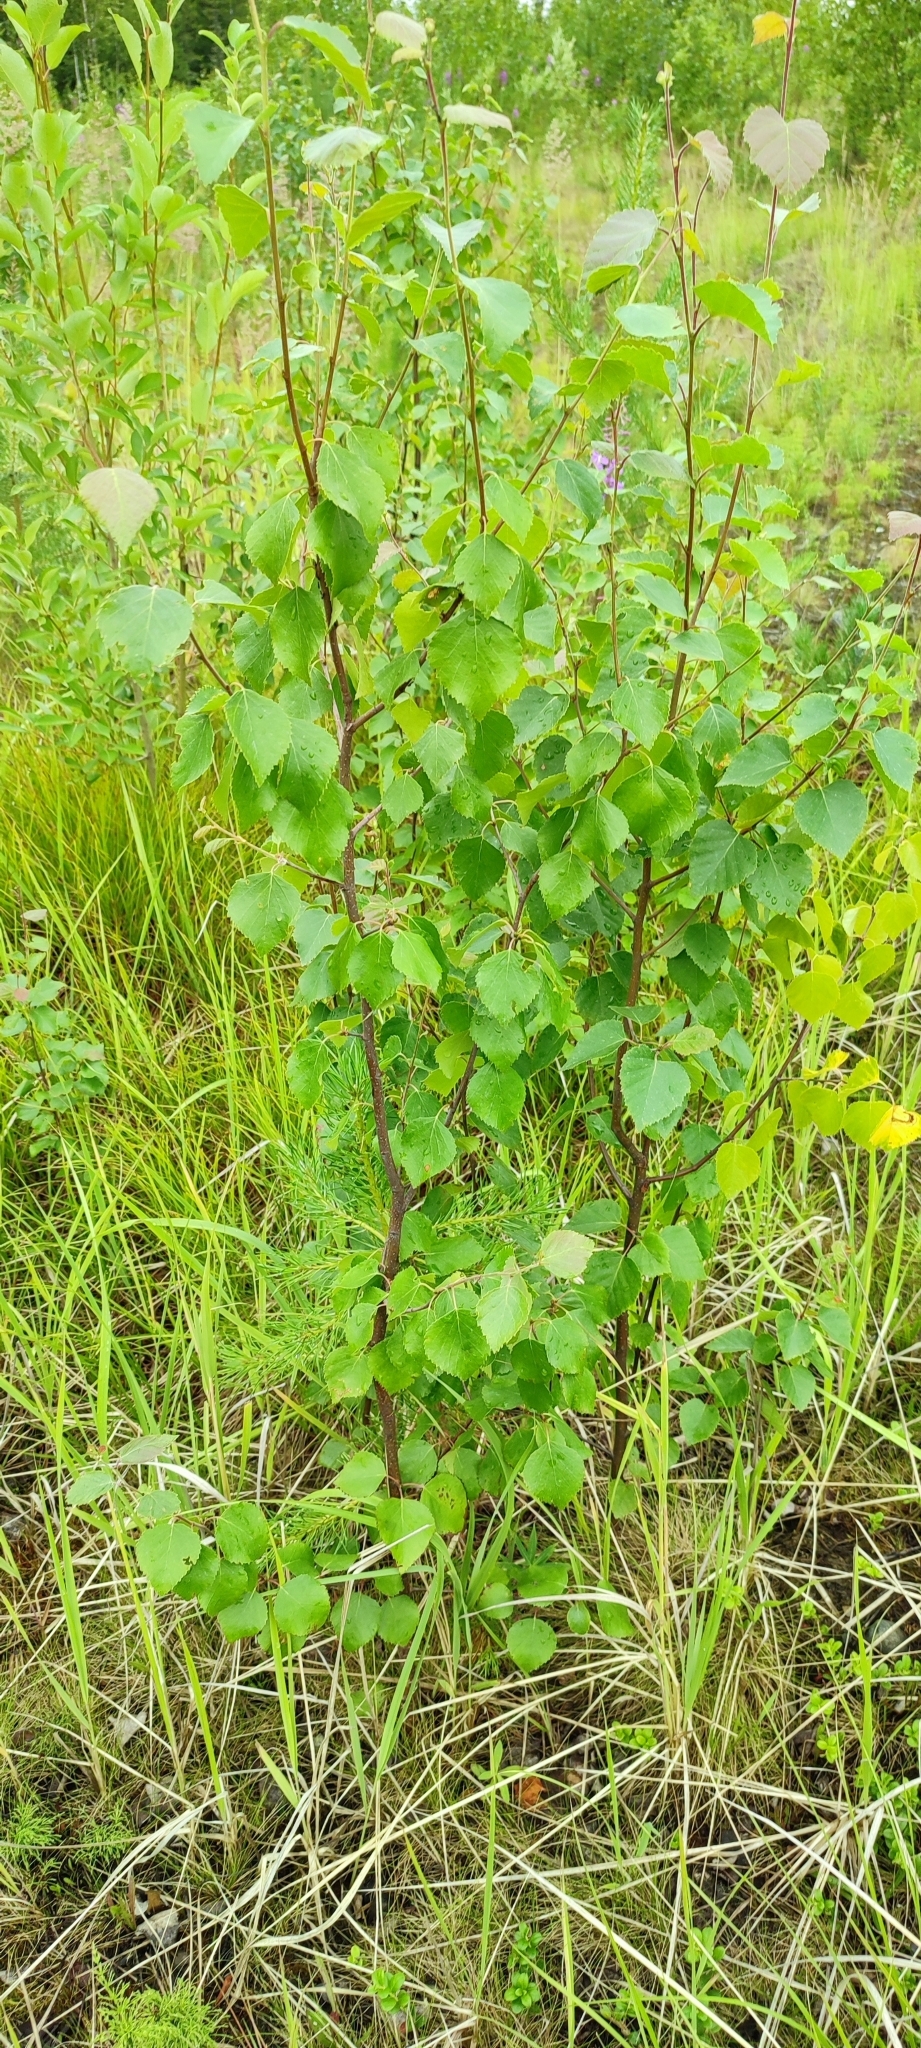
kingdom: Plantae
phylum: Tracheophyta
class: Magnoliopsida
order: Fagales
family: Betulaceae
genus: Betula
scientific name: Betula pubescens
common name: Downy birch
